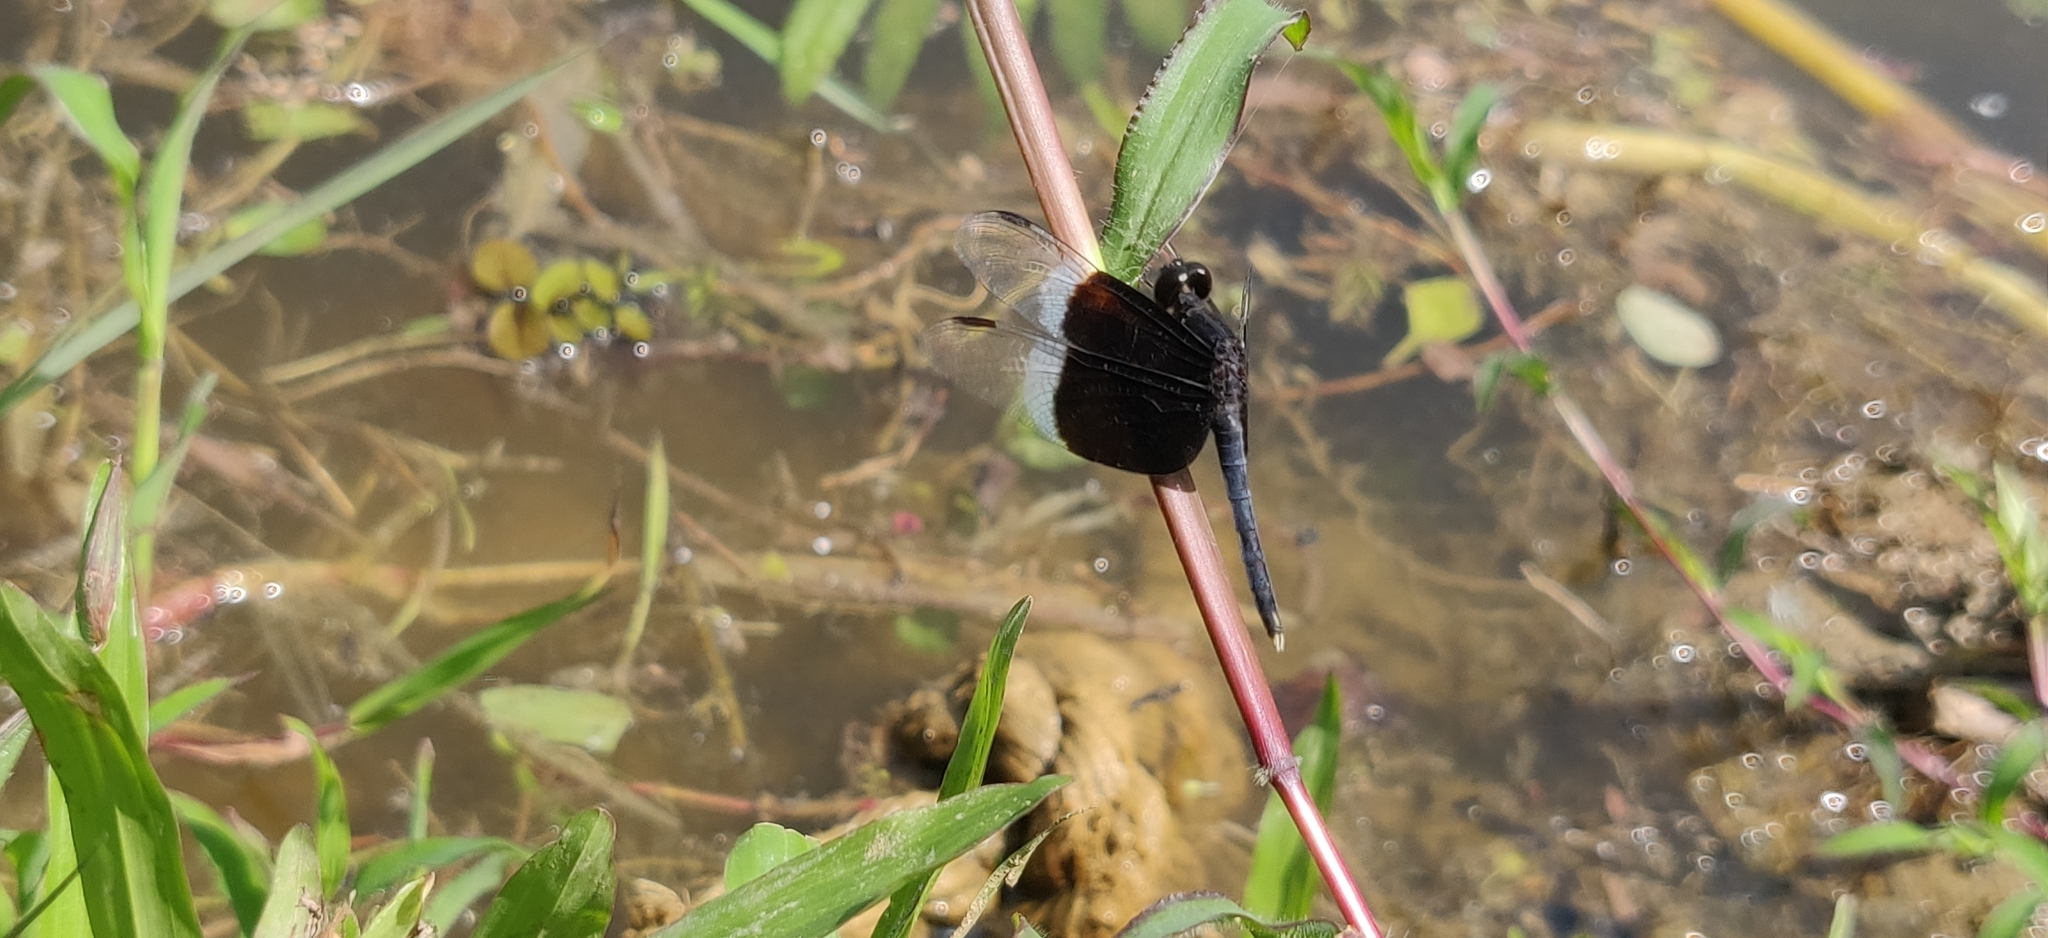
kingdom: Animalia
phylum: Arthropoda
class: Insecta
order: Odonata
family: Libellulidae
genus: Neurothemis
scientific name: Neurothemis tullia
